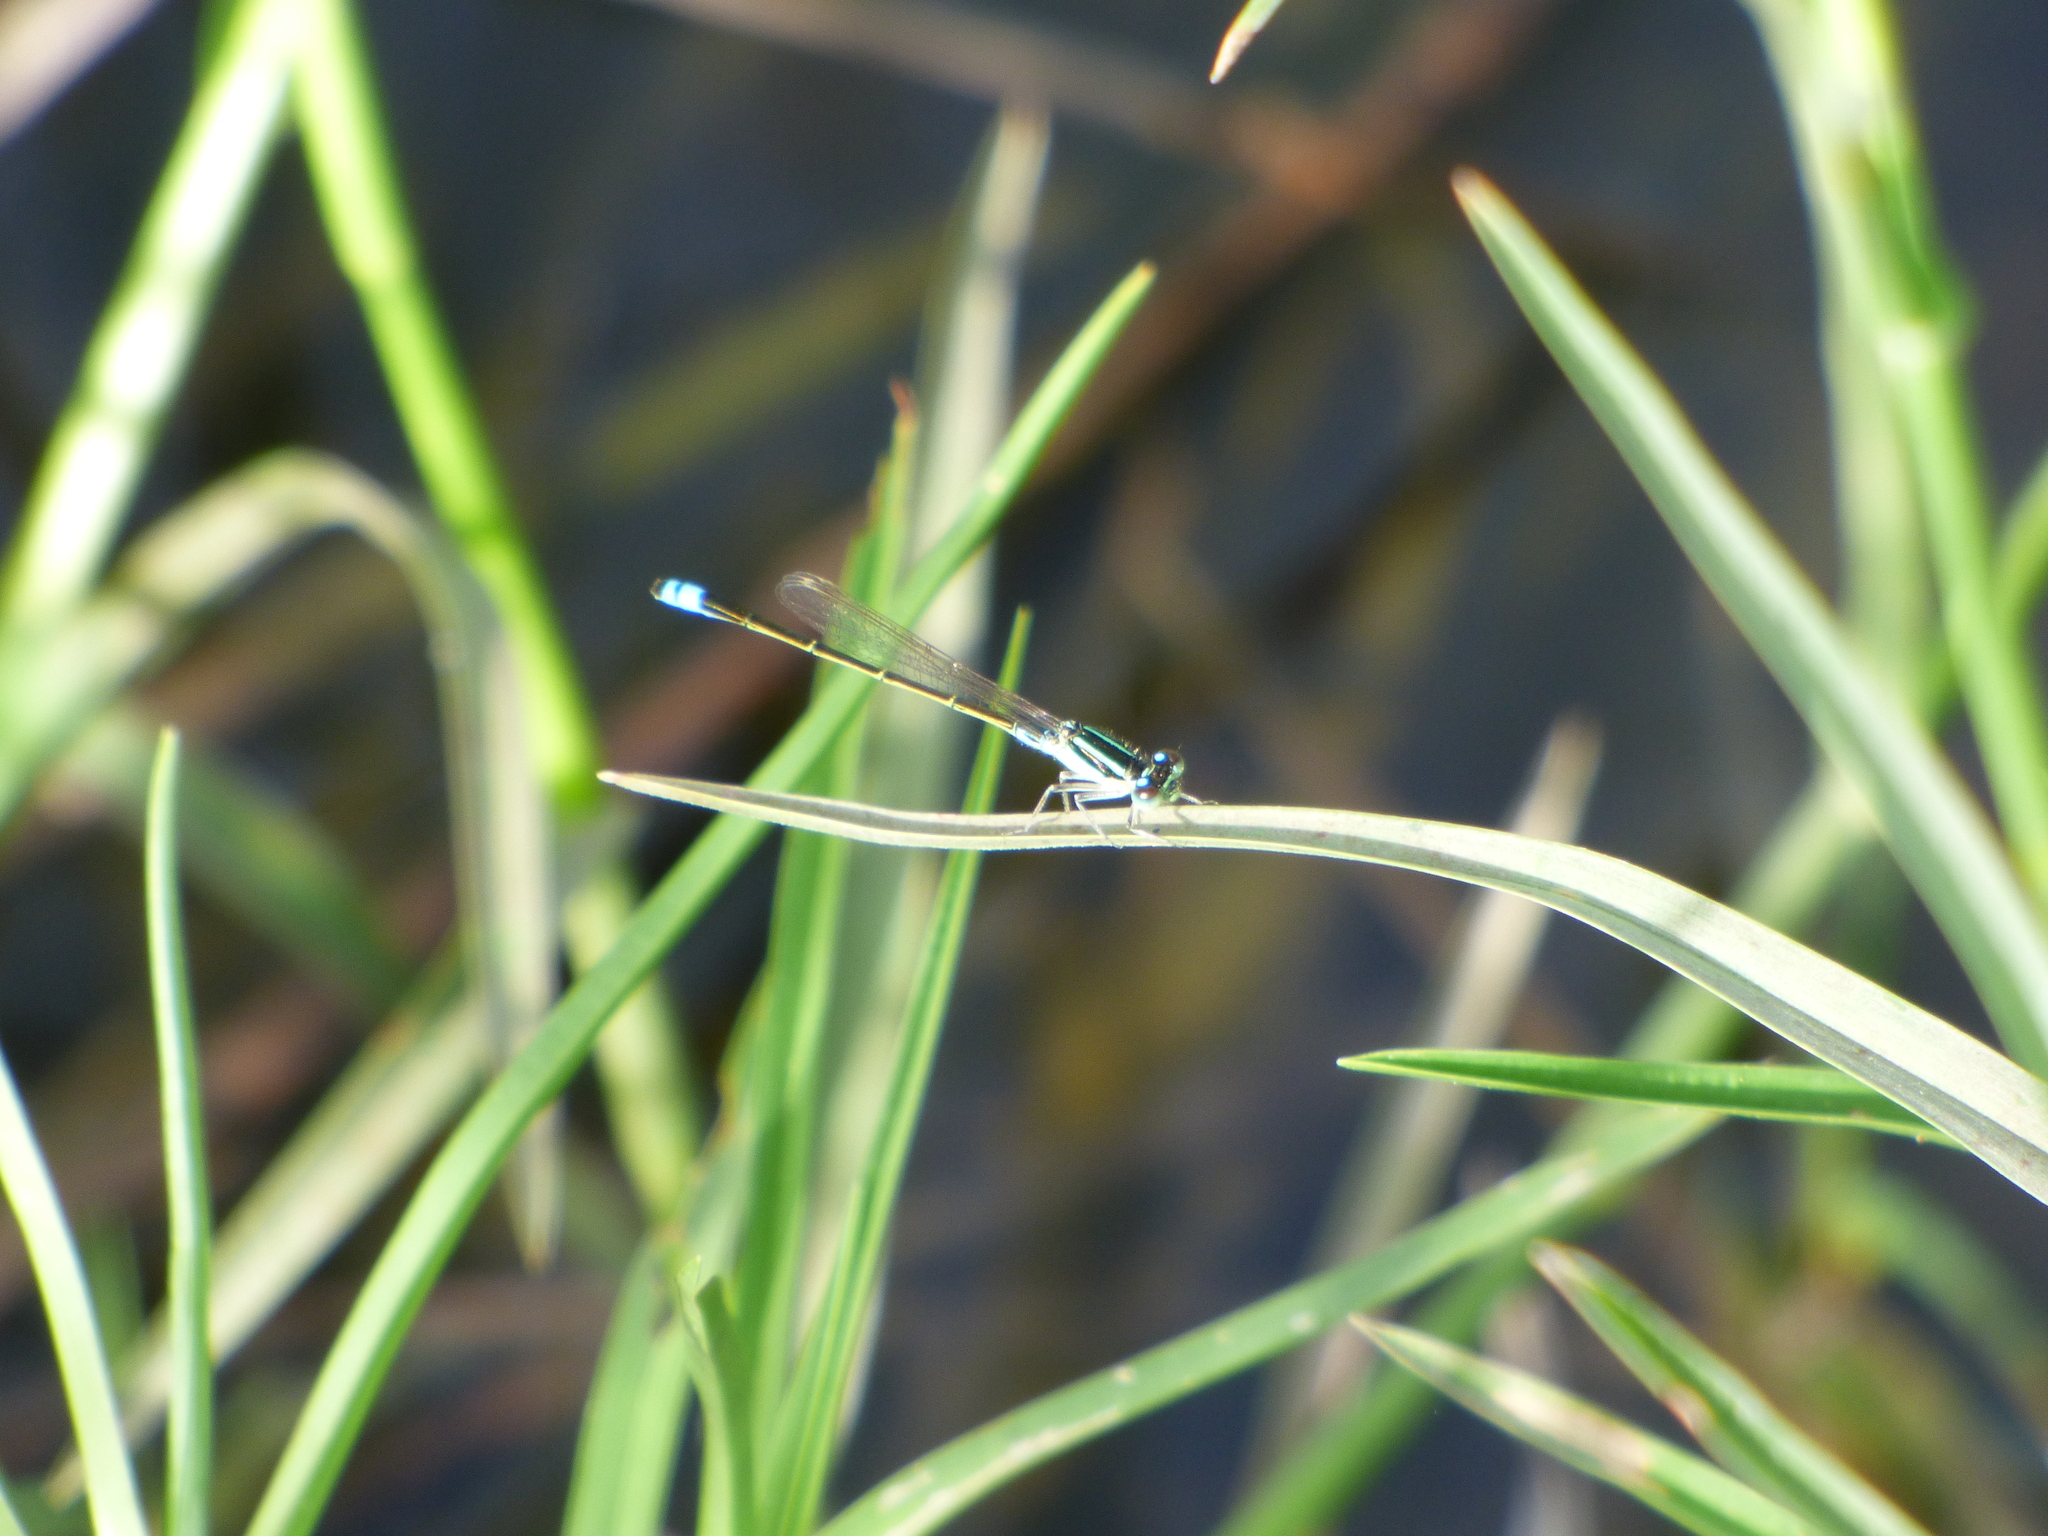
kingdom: Animalia
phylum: Arthropoda
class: Insecta
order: Odonata
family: Coenagrionidae
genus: Ischnura
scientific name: Ischnura fluviatilis
